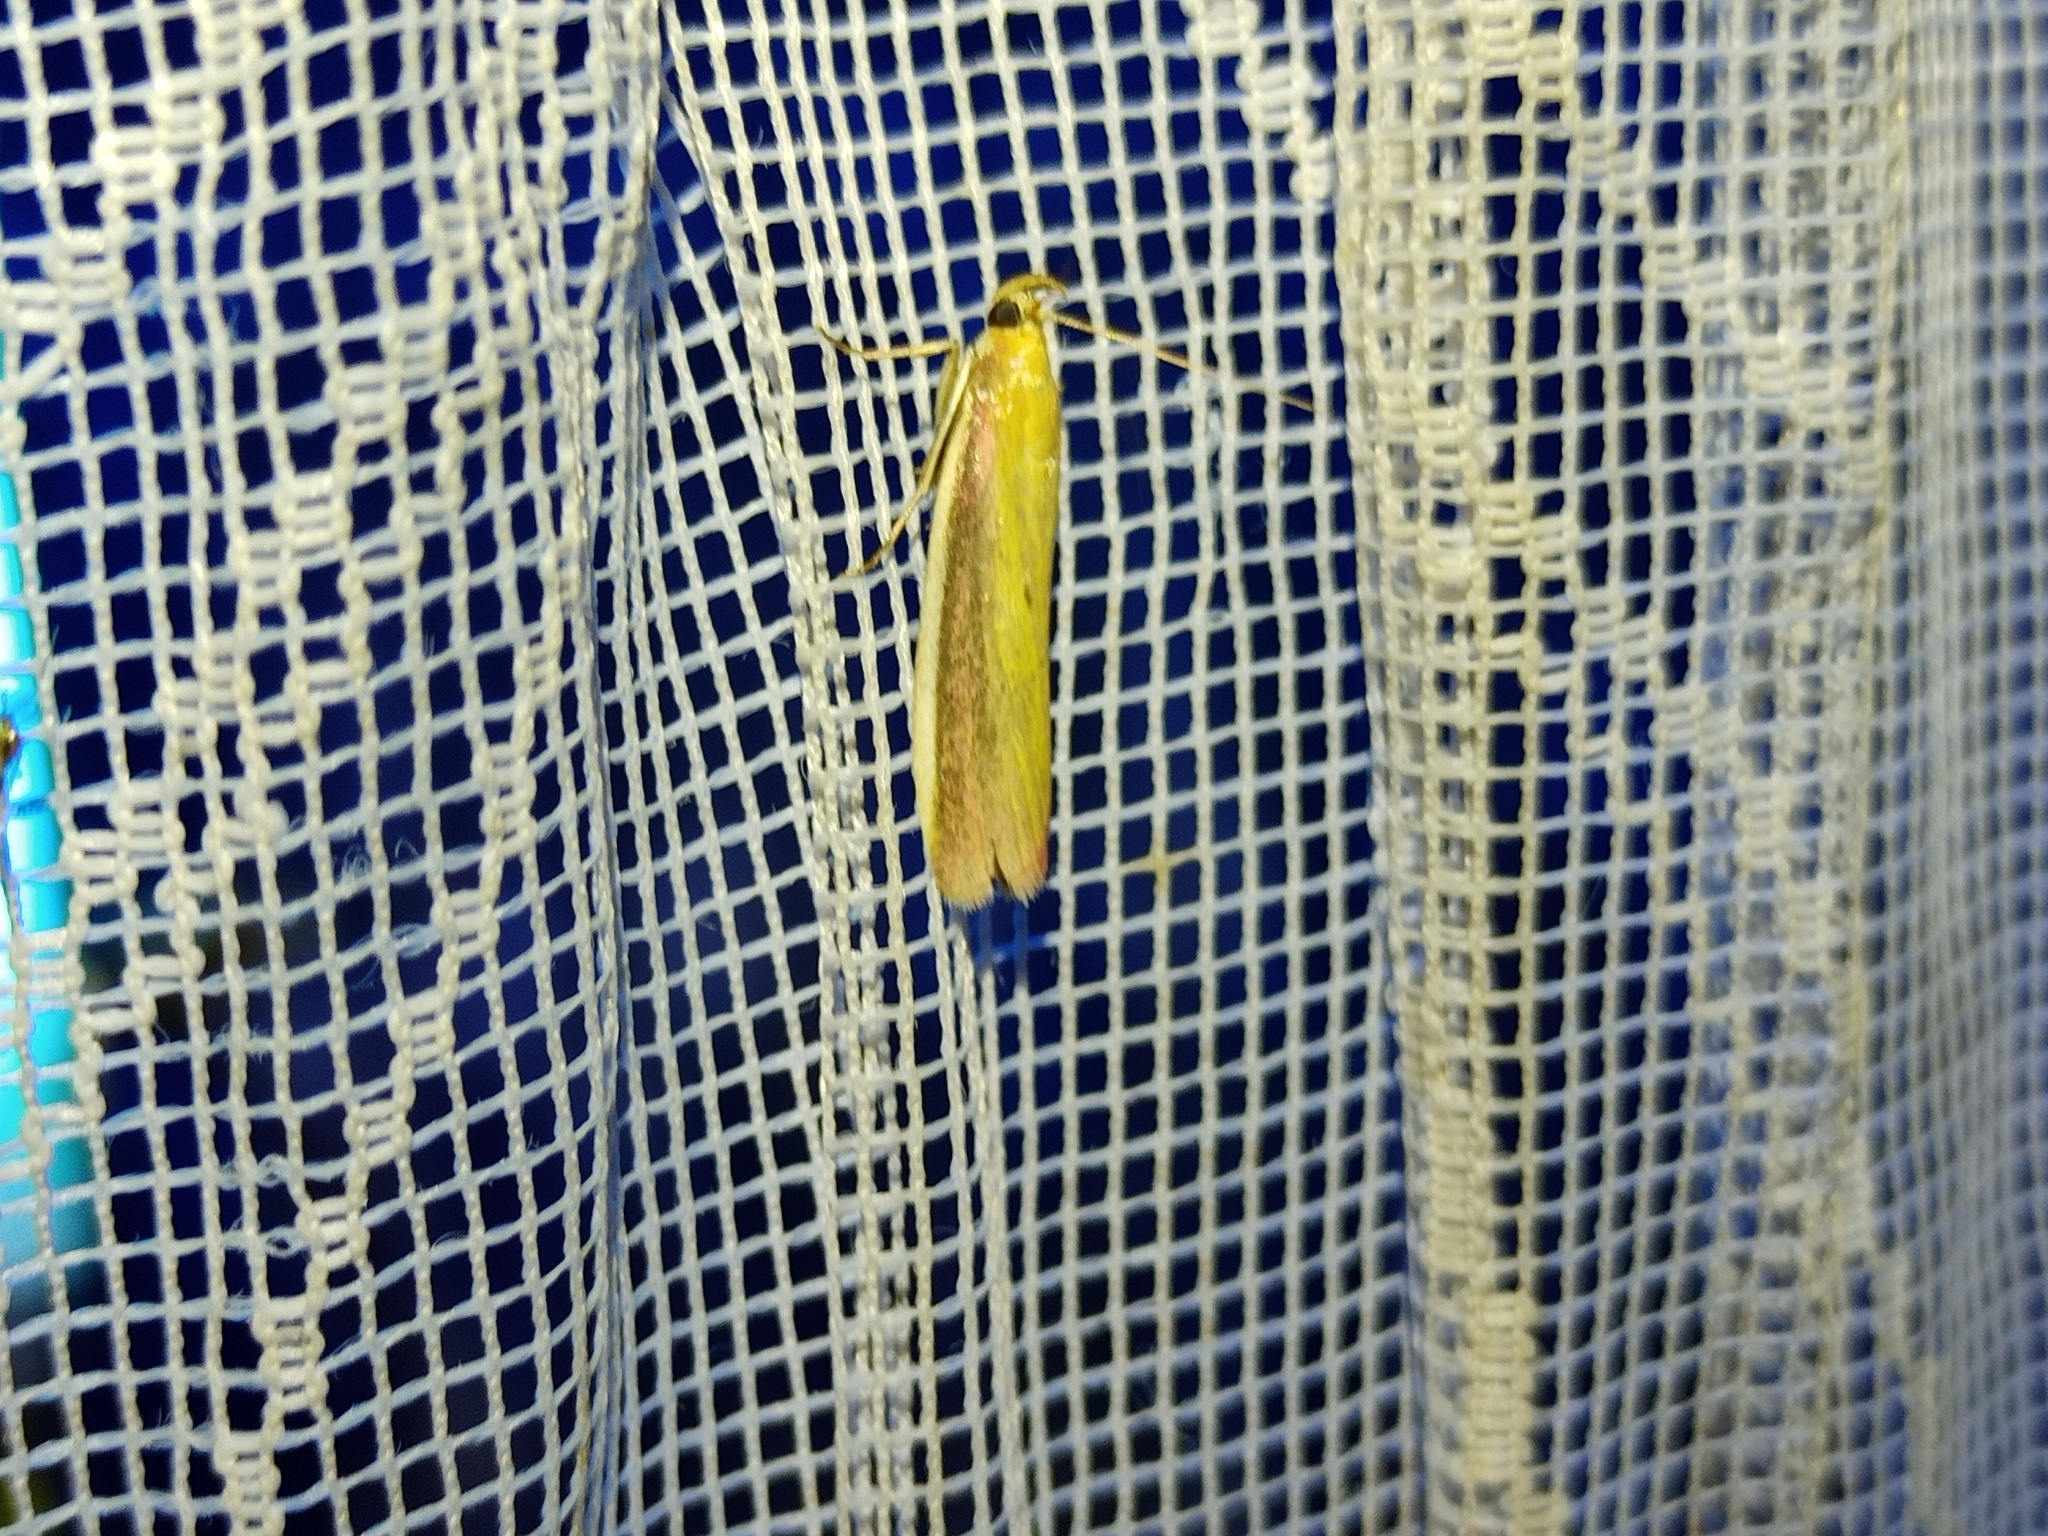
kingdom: Animalia
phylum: Arthropoda
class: Insecta
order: Lepidoptera
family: Pyralidae
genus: Oncocera
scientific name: Oncocera semirubella
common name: Rosy-striped knot-horn
